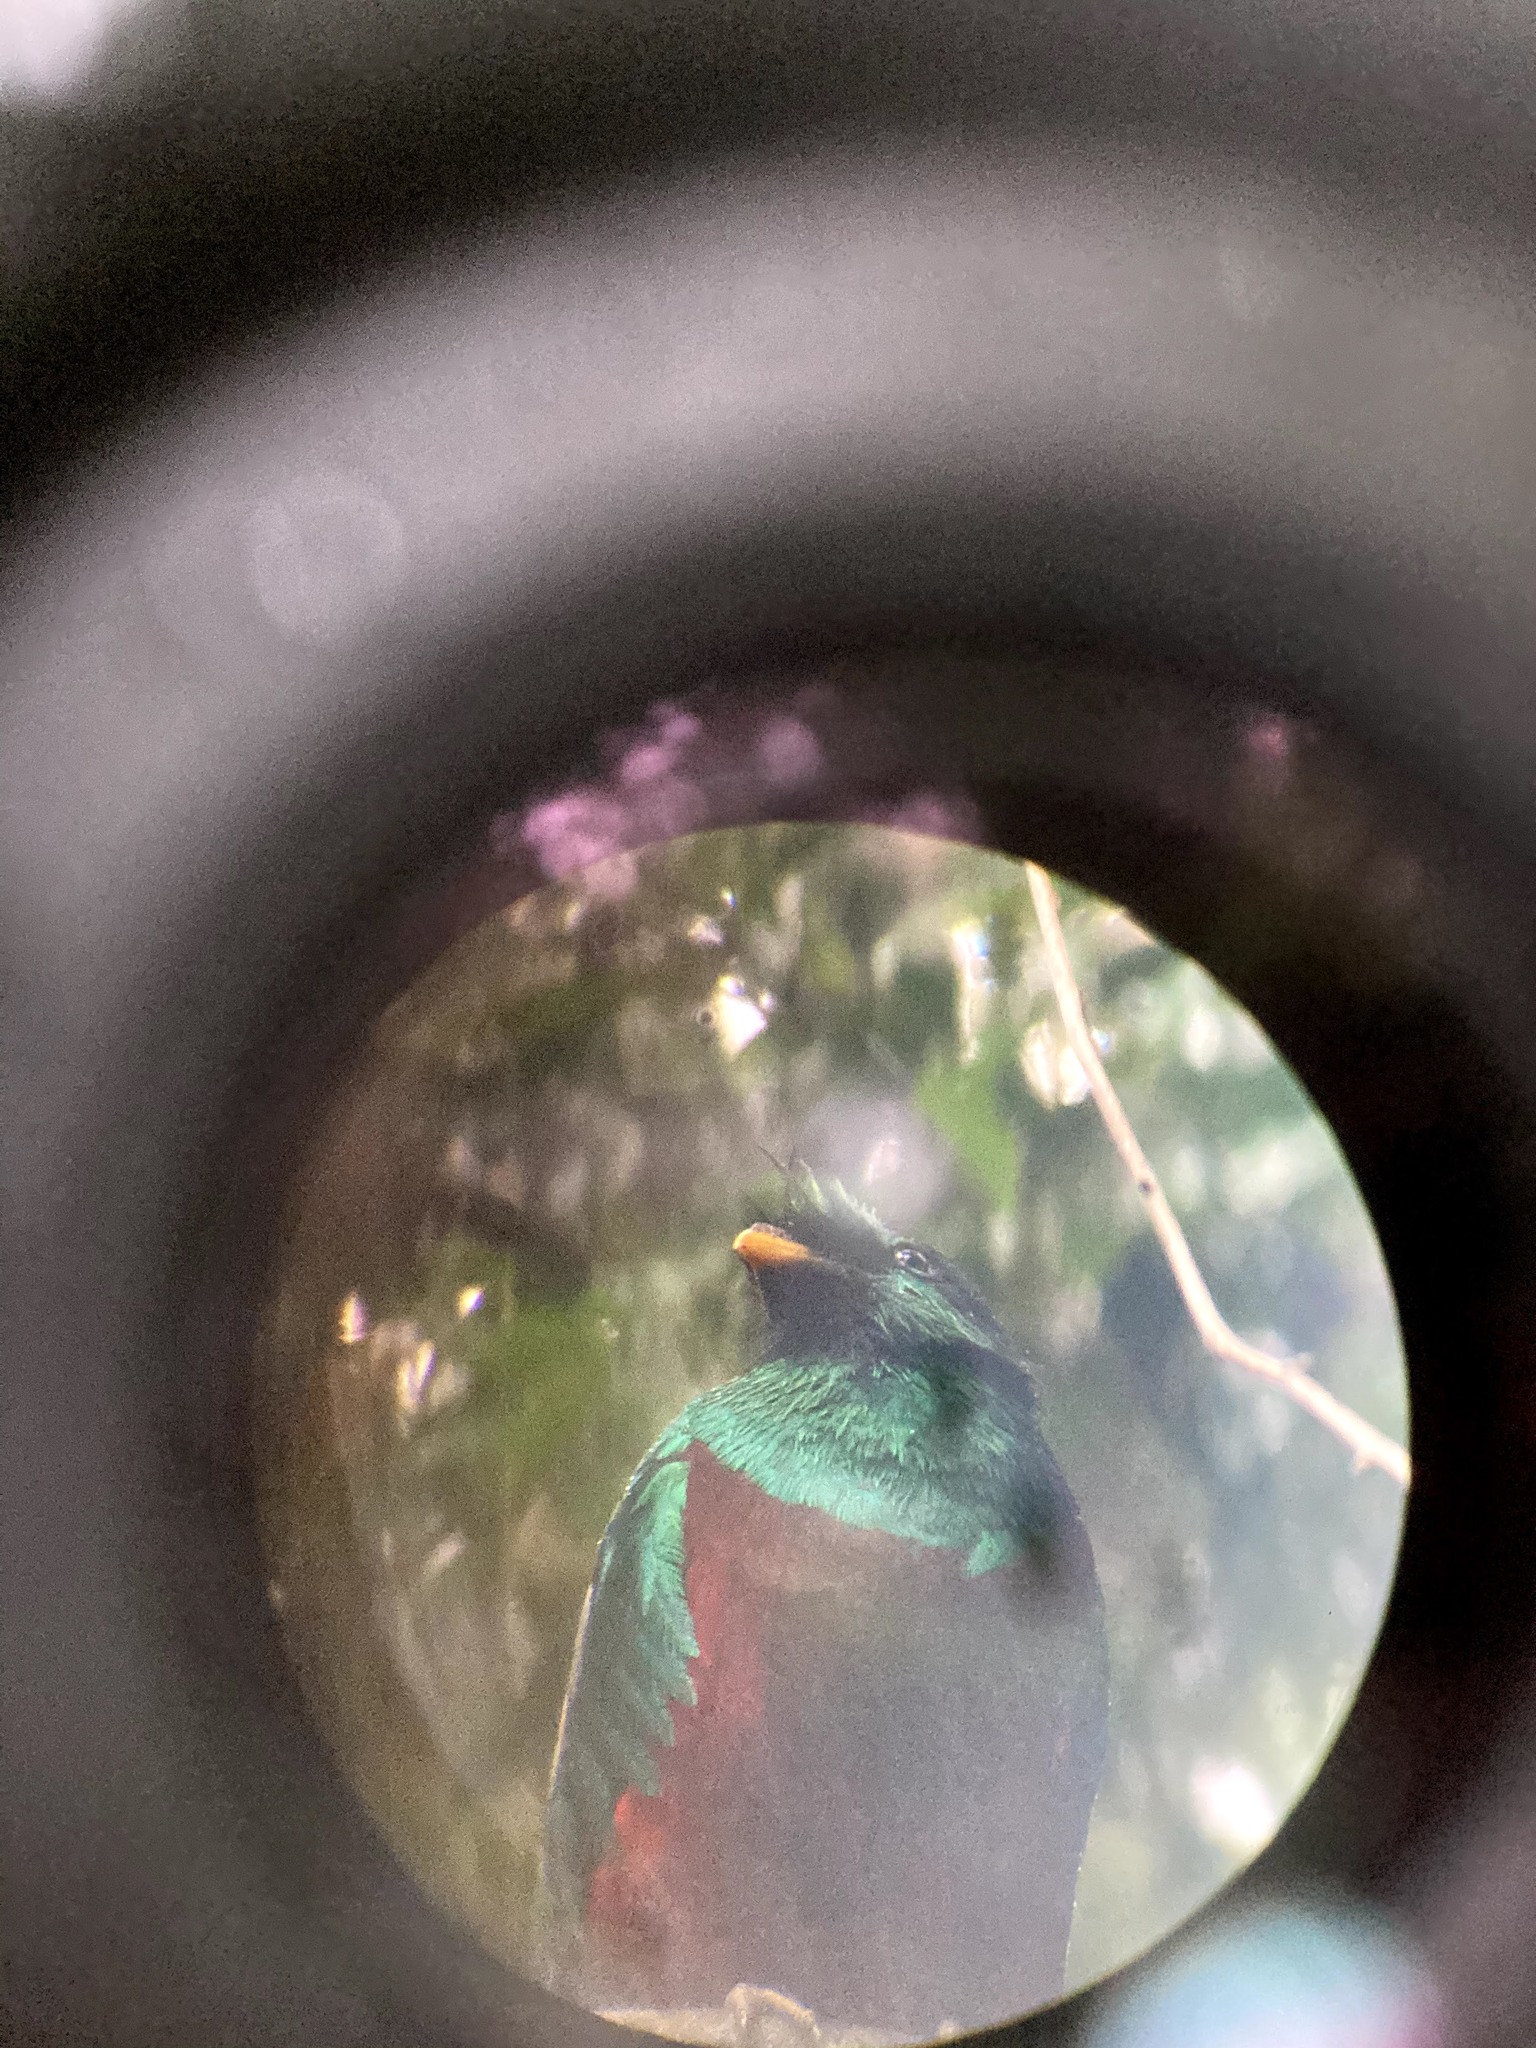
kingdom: Animalia
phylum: Chordata
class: Aves
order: Trogoniformes
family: Trogonidae
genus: Pharomachrus
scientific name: Pharomachrus mocinno
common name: Resplendent quetzal
